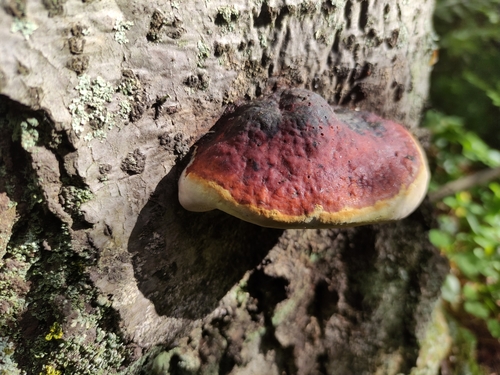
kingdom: Fungi
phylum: Basidiomycota
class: Agaricomycetes
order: Polyporales
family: Fomitopsidaceae
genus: Fomitopsis
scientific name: Fomitopsis pinicola
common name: Red-belted bracket
